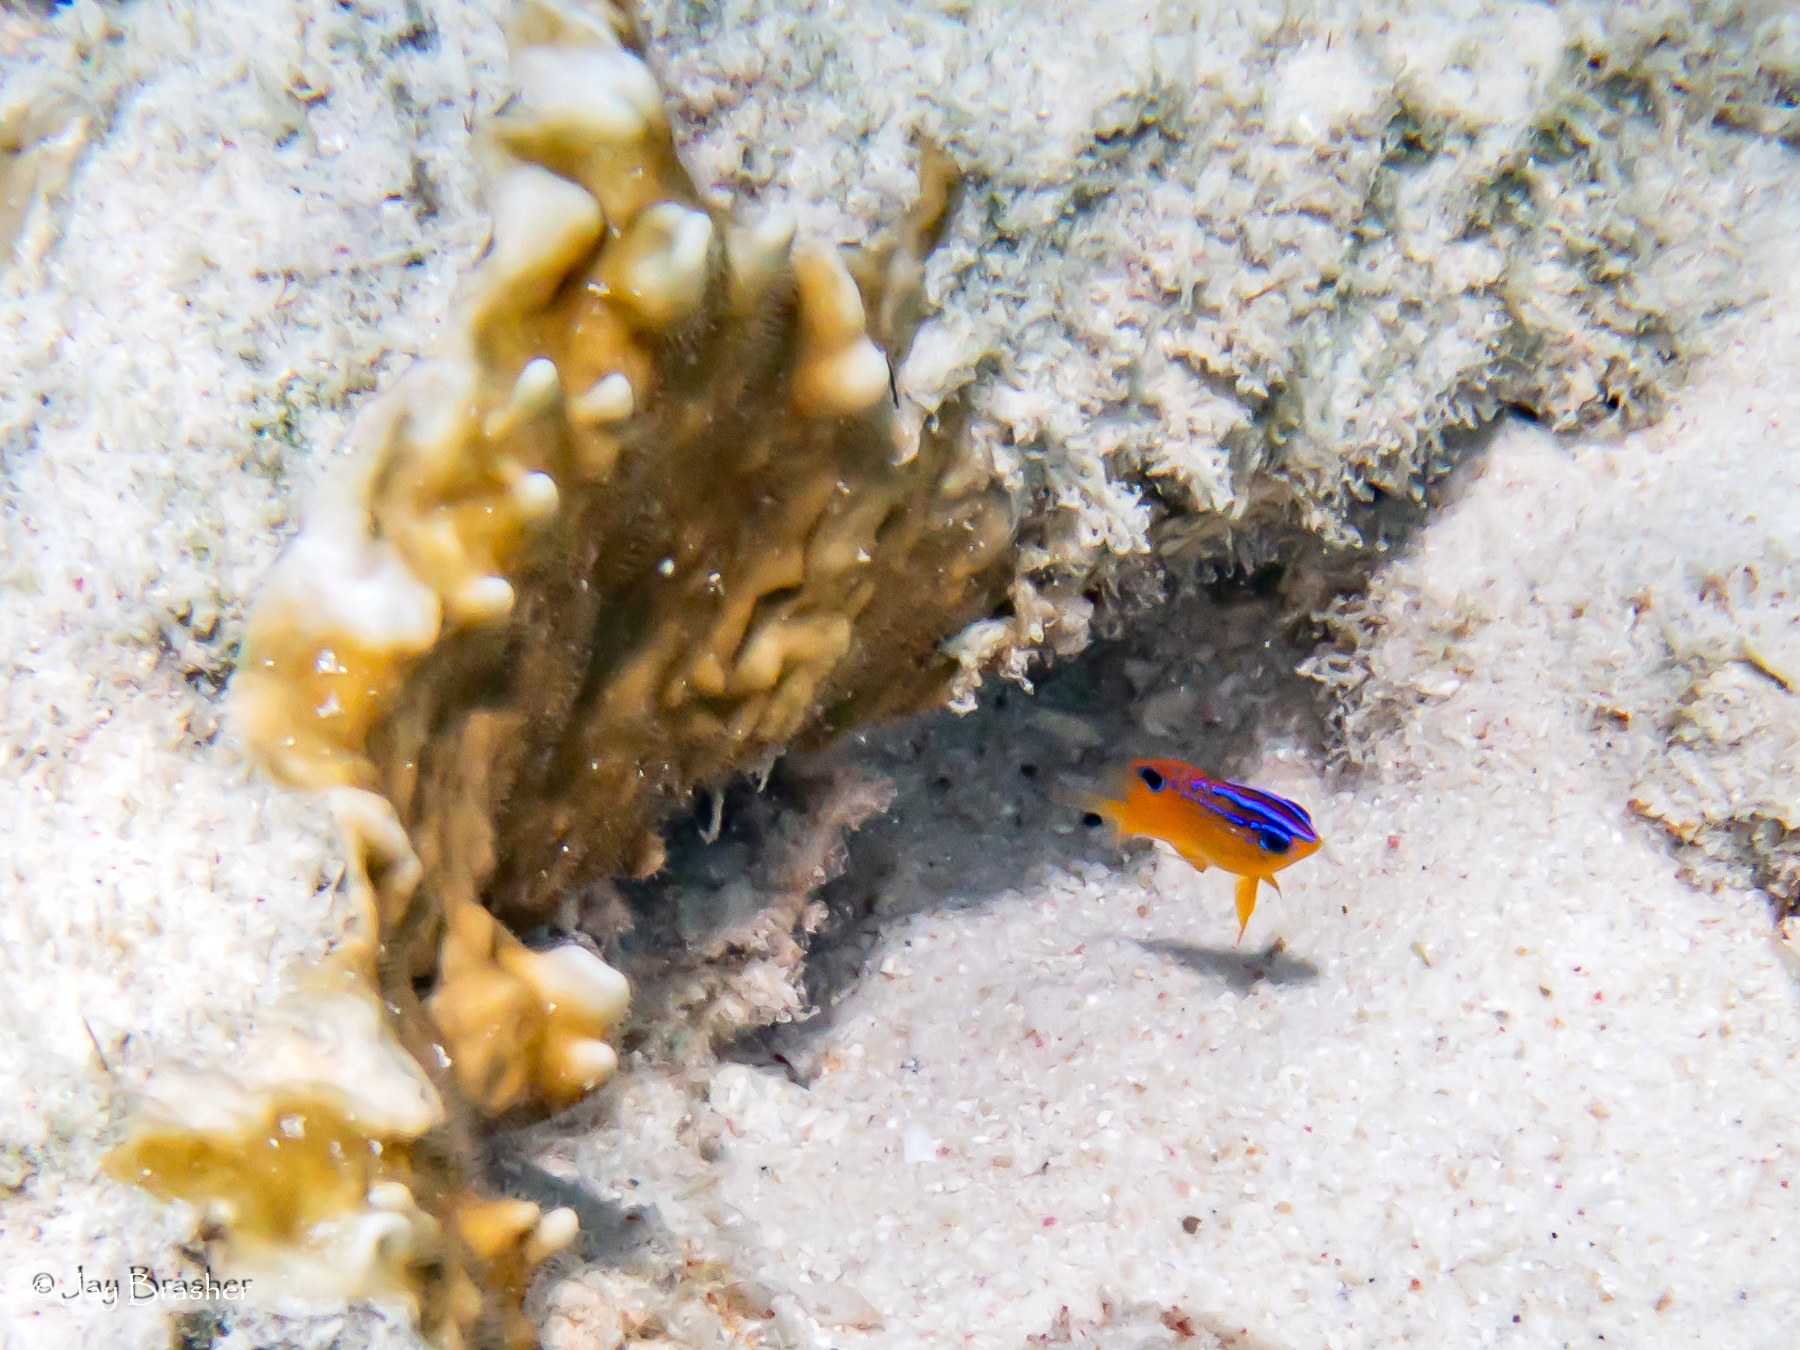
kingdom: Animalia
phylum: Chordata
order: Perciformes
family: Pomacentridae
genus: Stegastes
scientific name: Stegastes diencaeus
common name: Longfin damselfish
